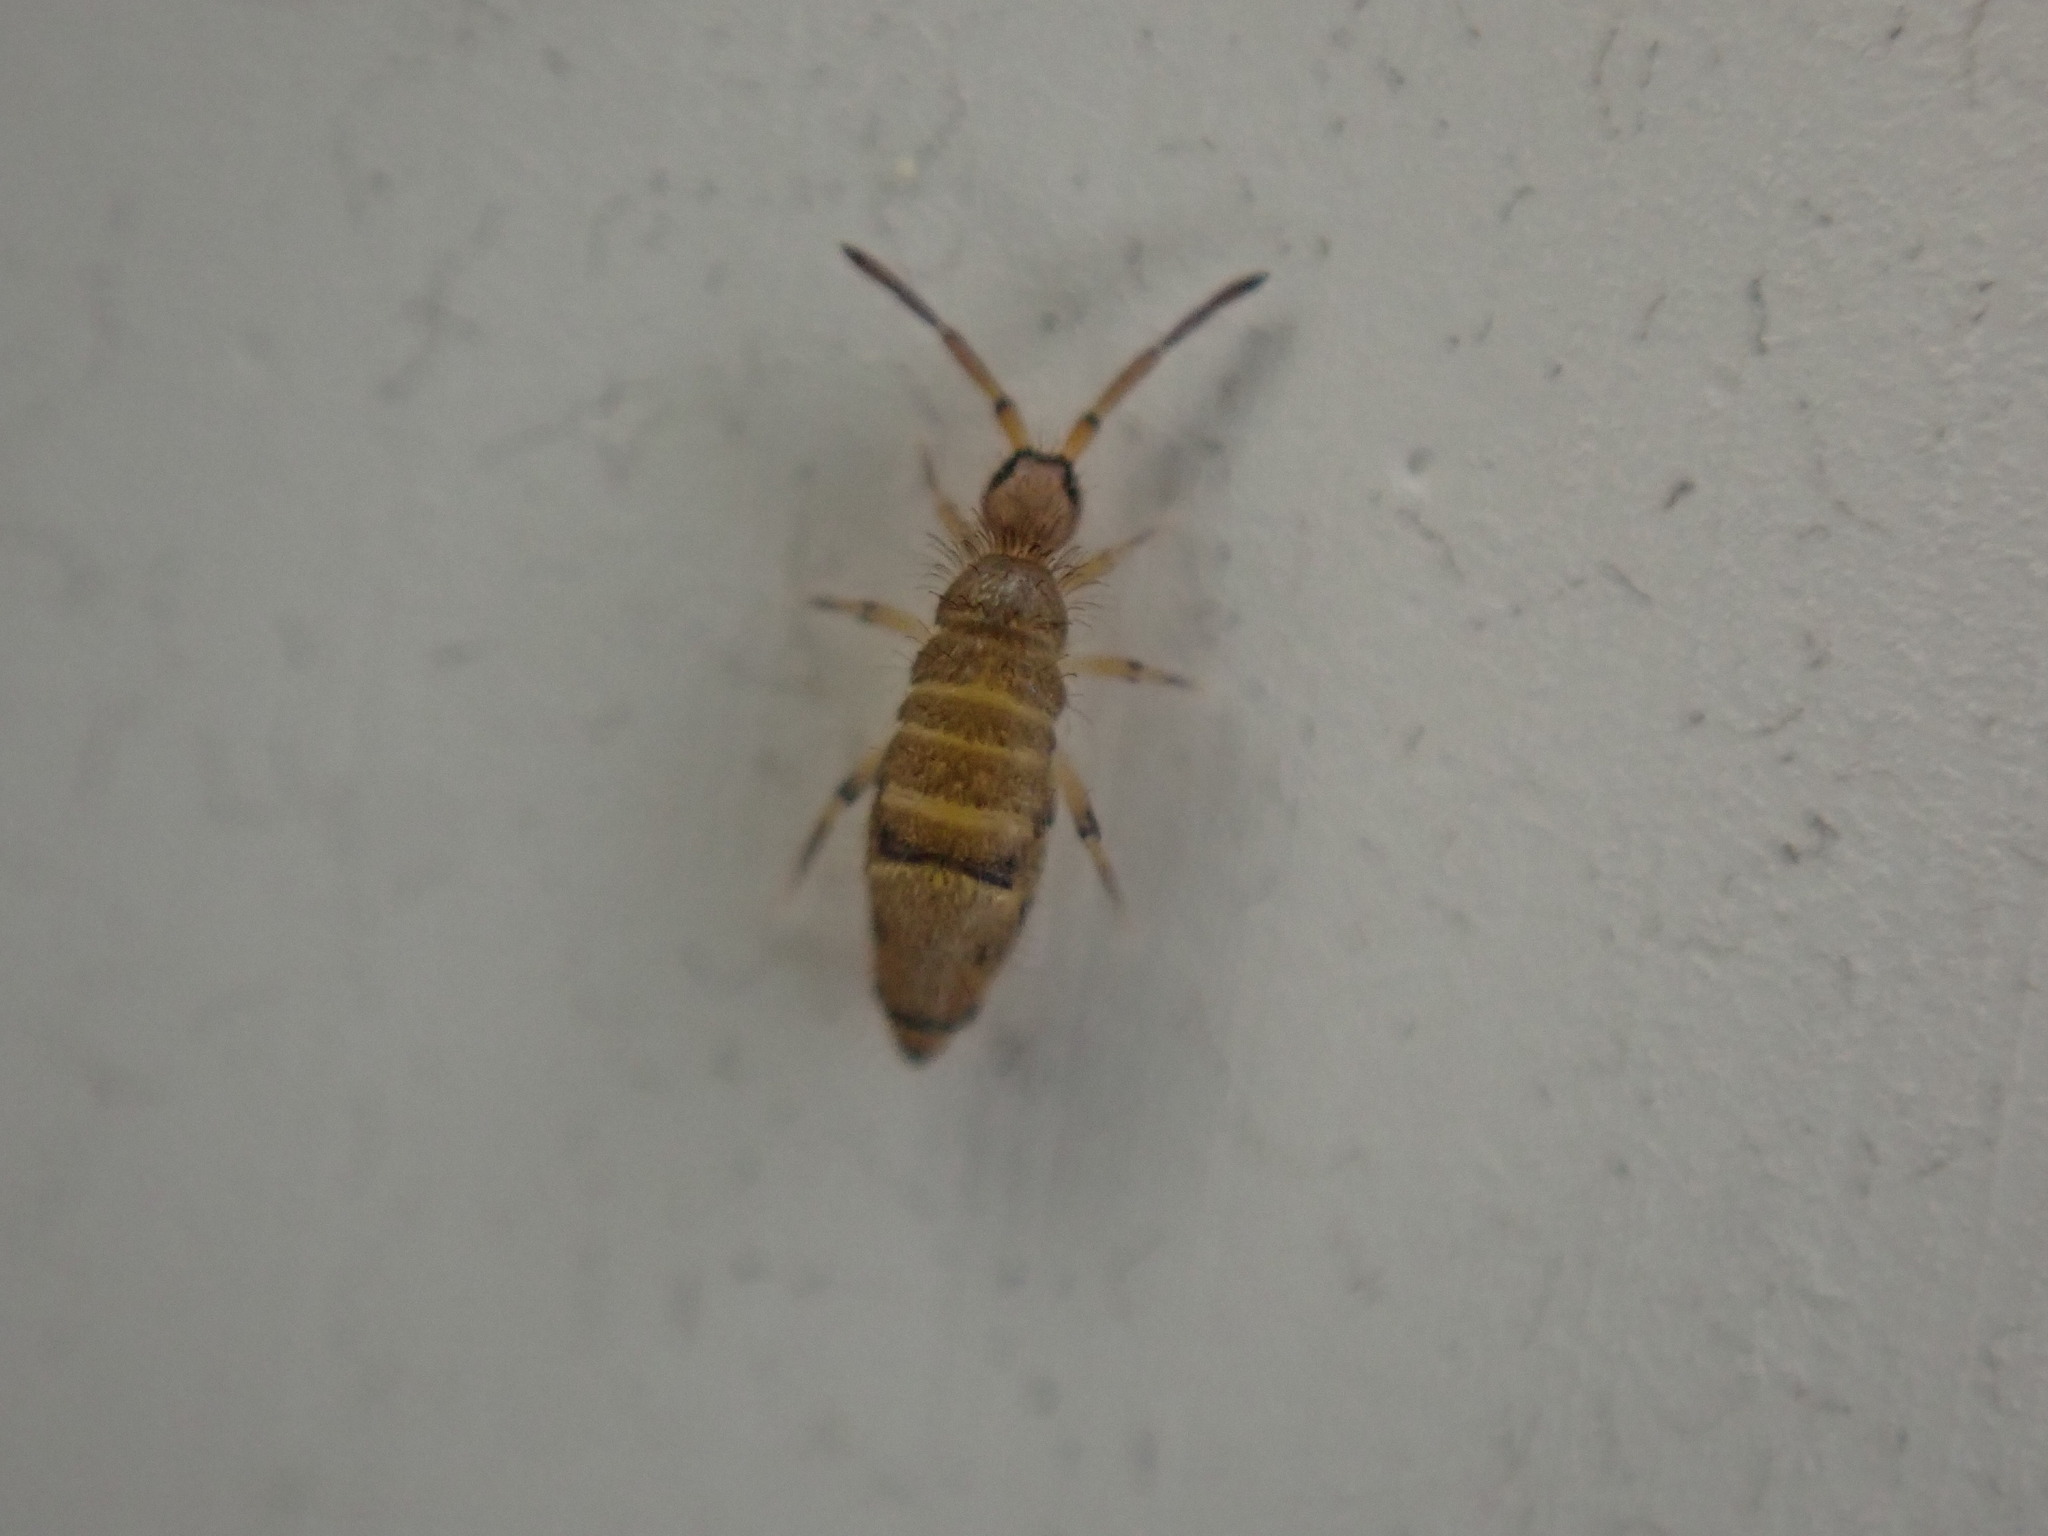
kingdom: Animalia
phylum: Arthropoda
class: Collembola
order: Entomobryomorpha
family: Entomobryidae
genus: Willowsia
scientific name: Willowsia nigromaculata
